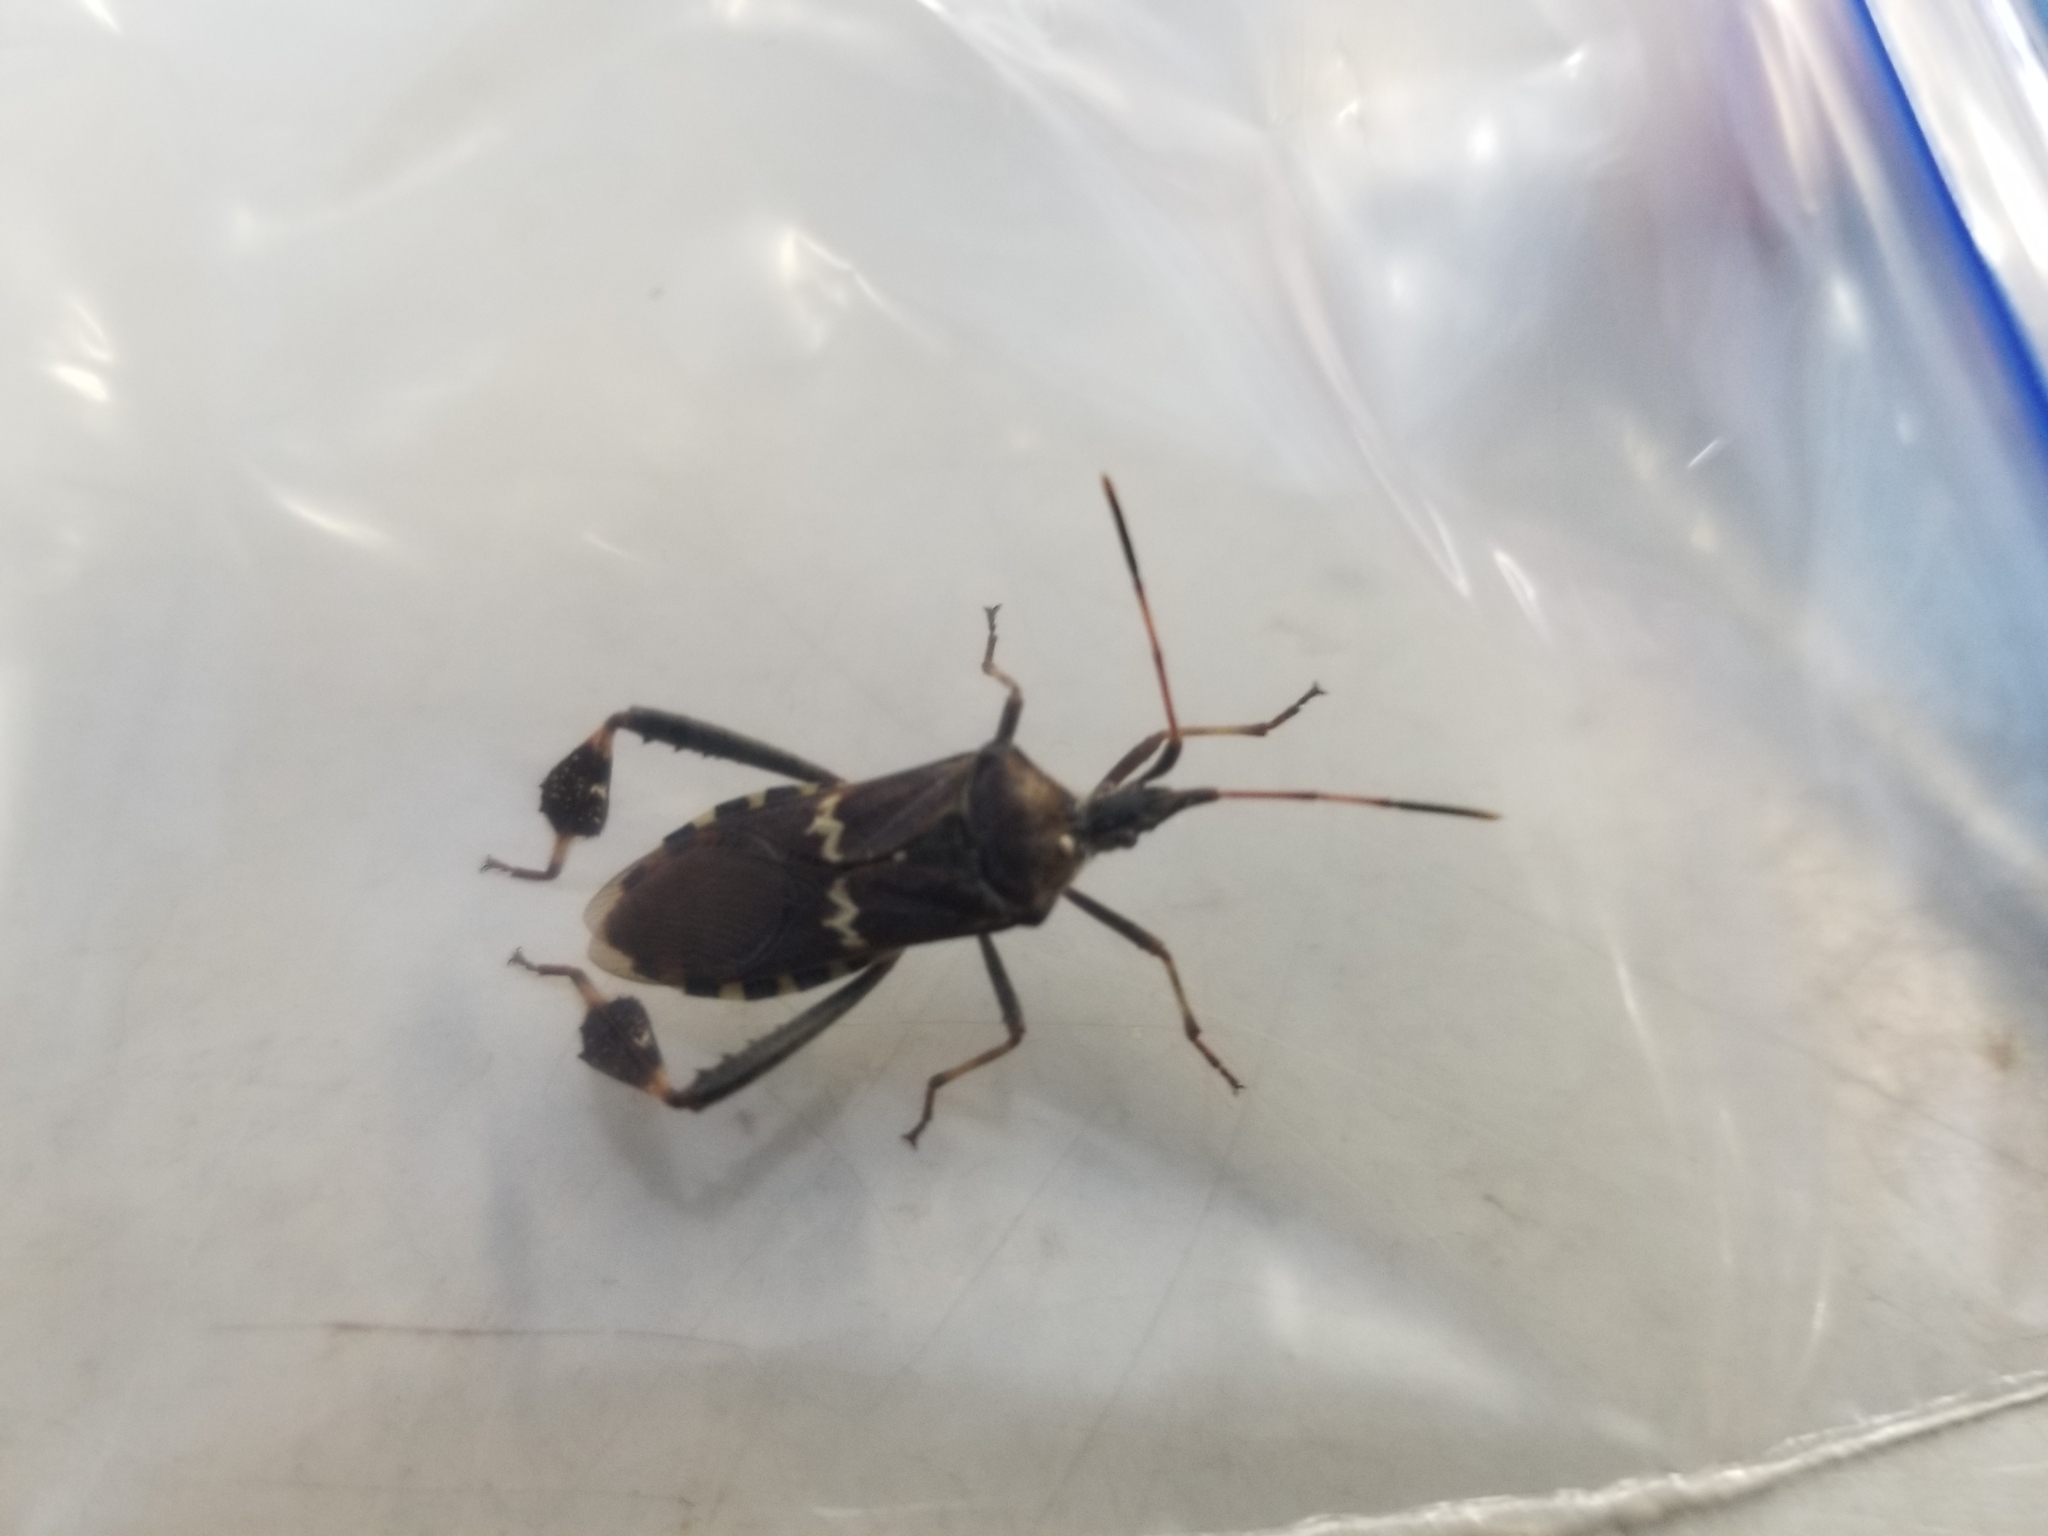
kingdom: Animalia
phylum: Arthropoda
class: Insecta
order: Hemiptera
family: Coreidae
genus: Leptoglossus
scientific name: Leptoglossus clypealis
